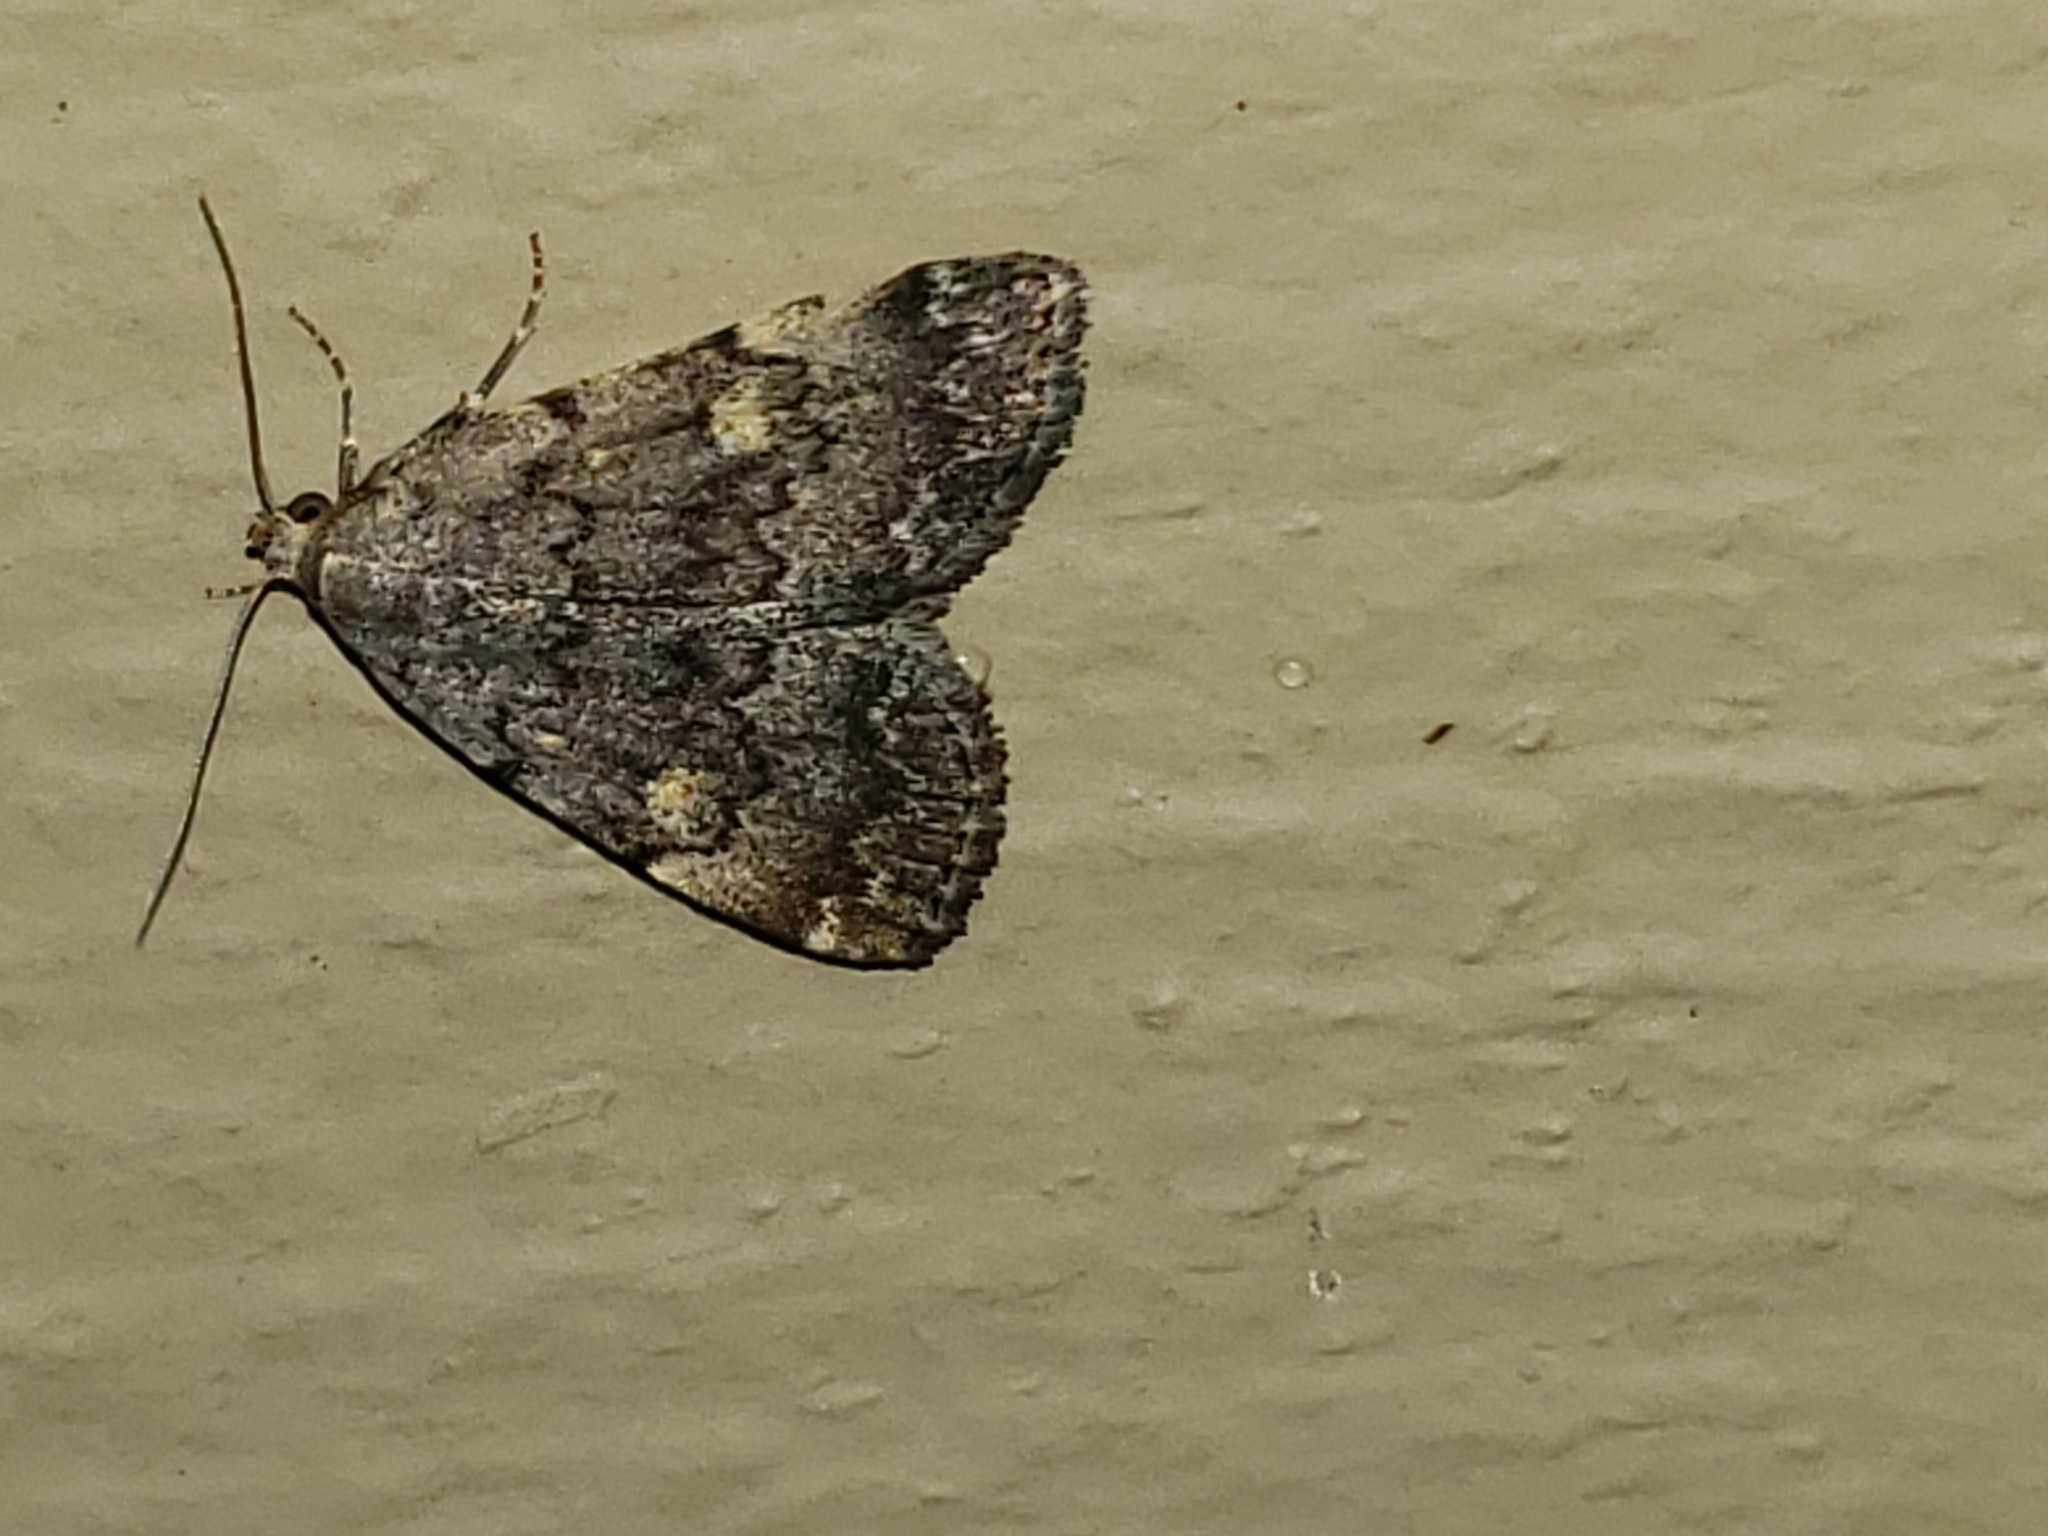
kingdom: Animalia
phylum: Arthropoda
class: Insecta
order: Lepidoptera
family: Erebidae
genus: Idia
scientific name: Idia aemula
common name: Common idia moth
